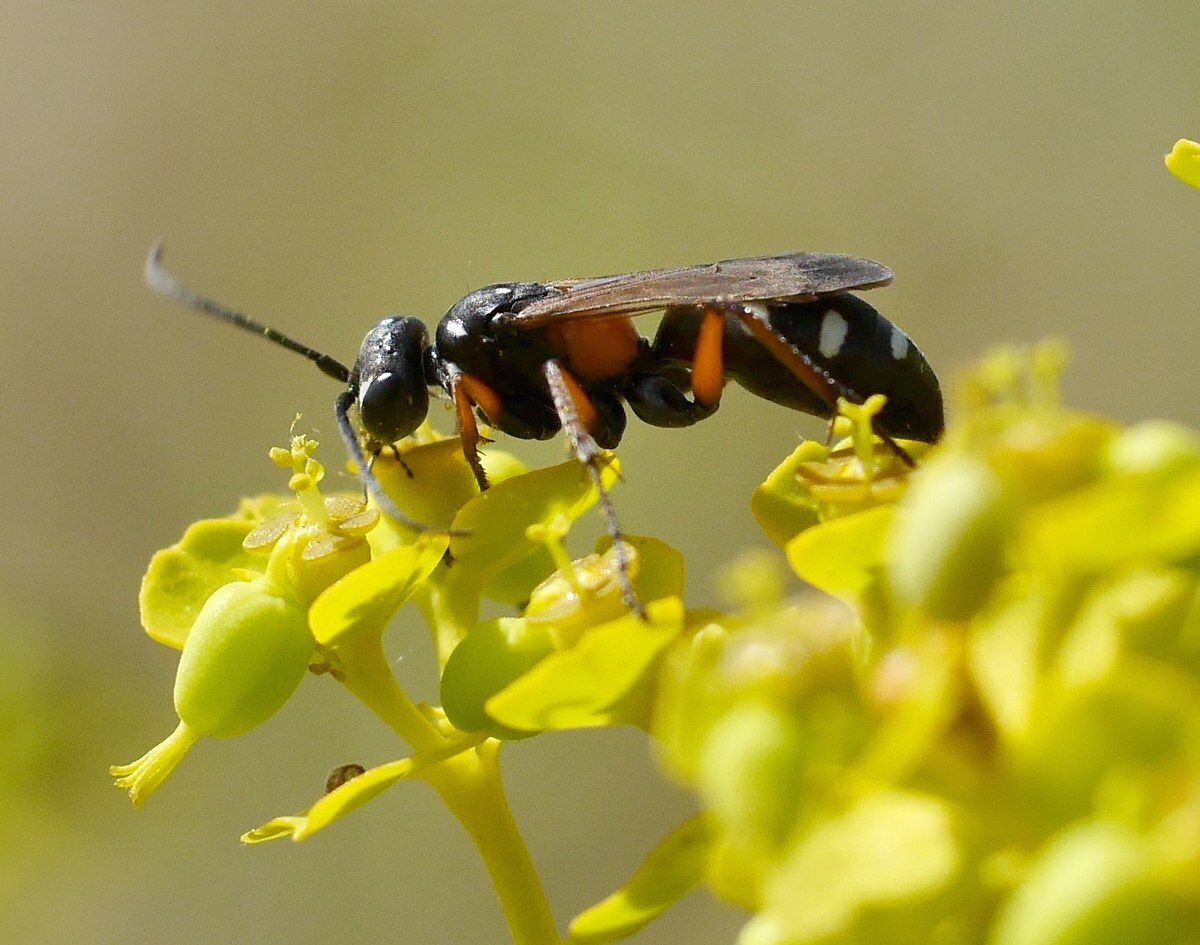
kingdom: Animalia
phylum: Arthropoda
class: Insecta
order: Hymenoptera
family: Pompilidae
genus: Cryptocheilus
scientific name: Cryptocheilus fabricii
